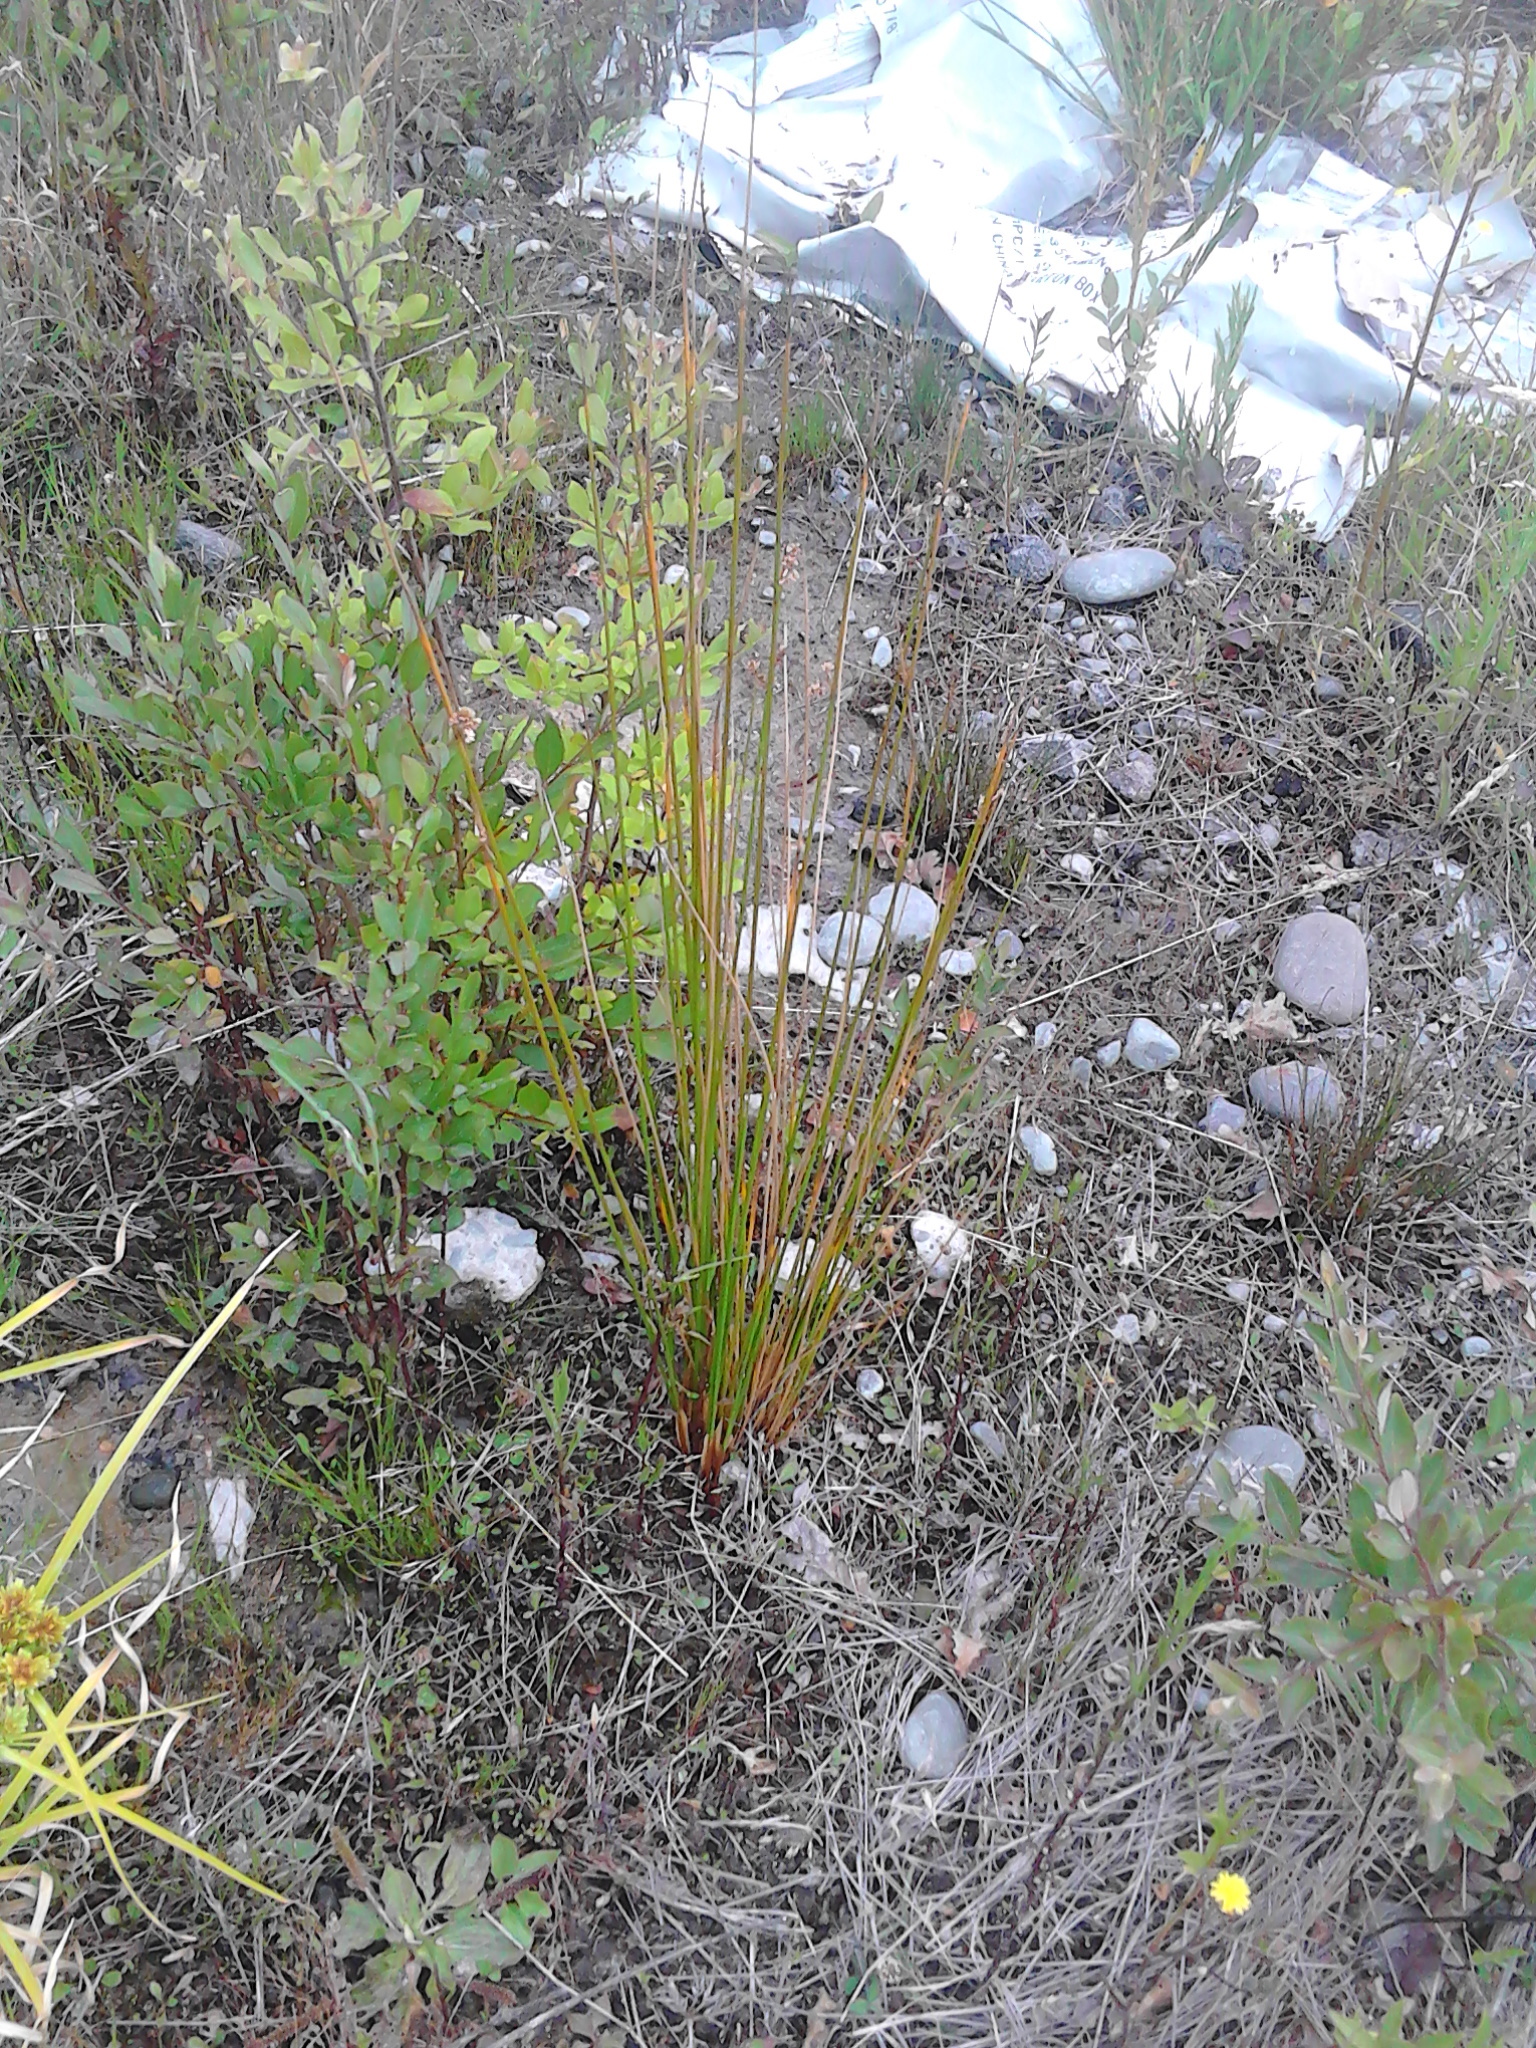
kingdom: Plantae
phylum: Tracheophyta
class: Liliopsida
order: Poales
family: Juncaceae
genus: Juncus
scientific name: Juncus edgariae
